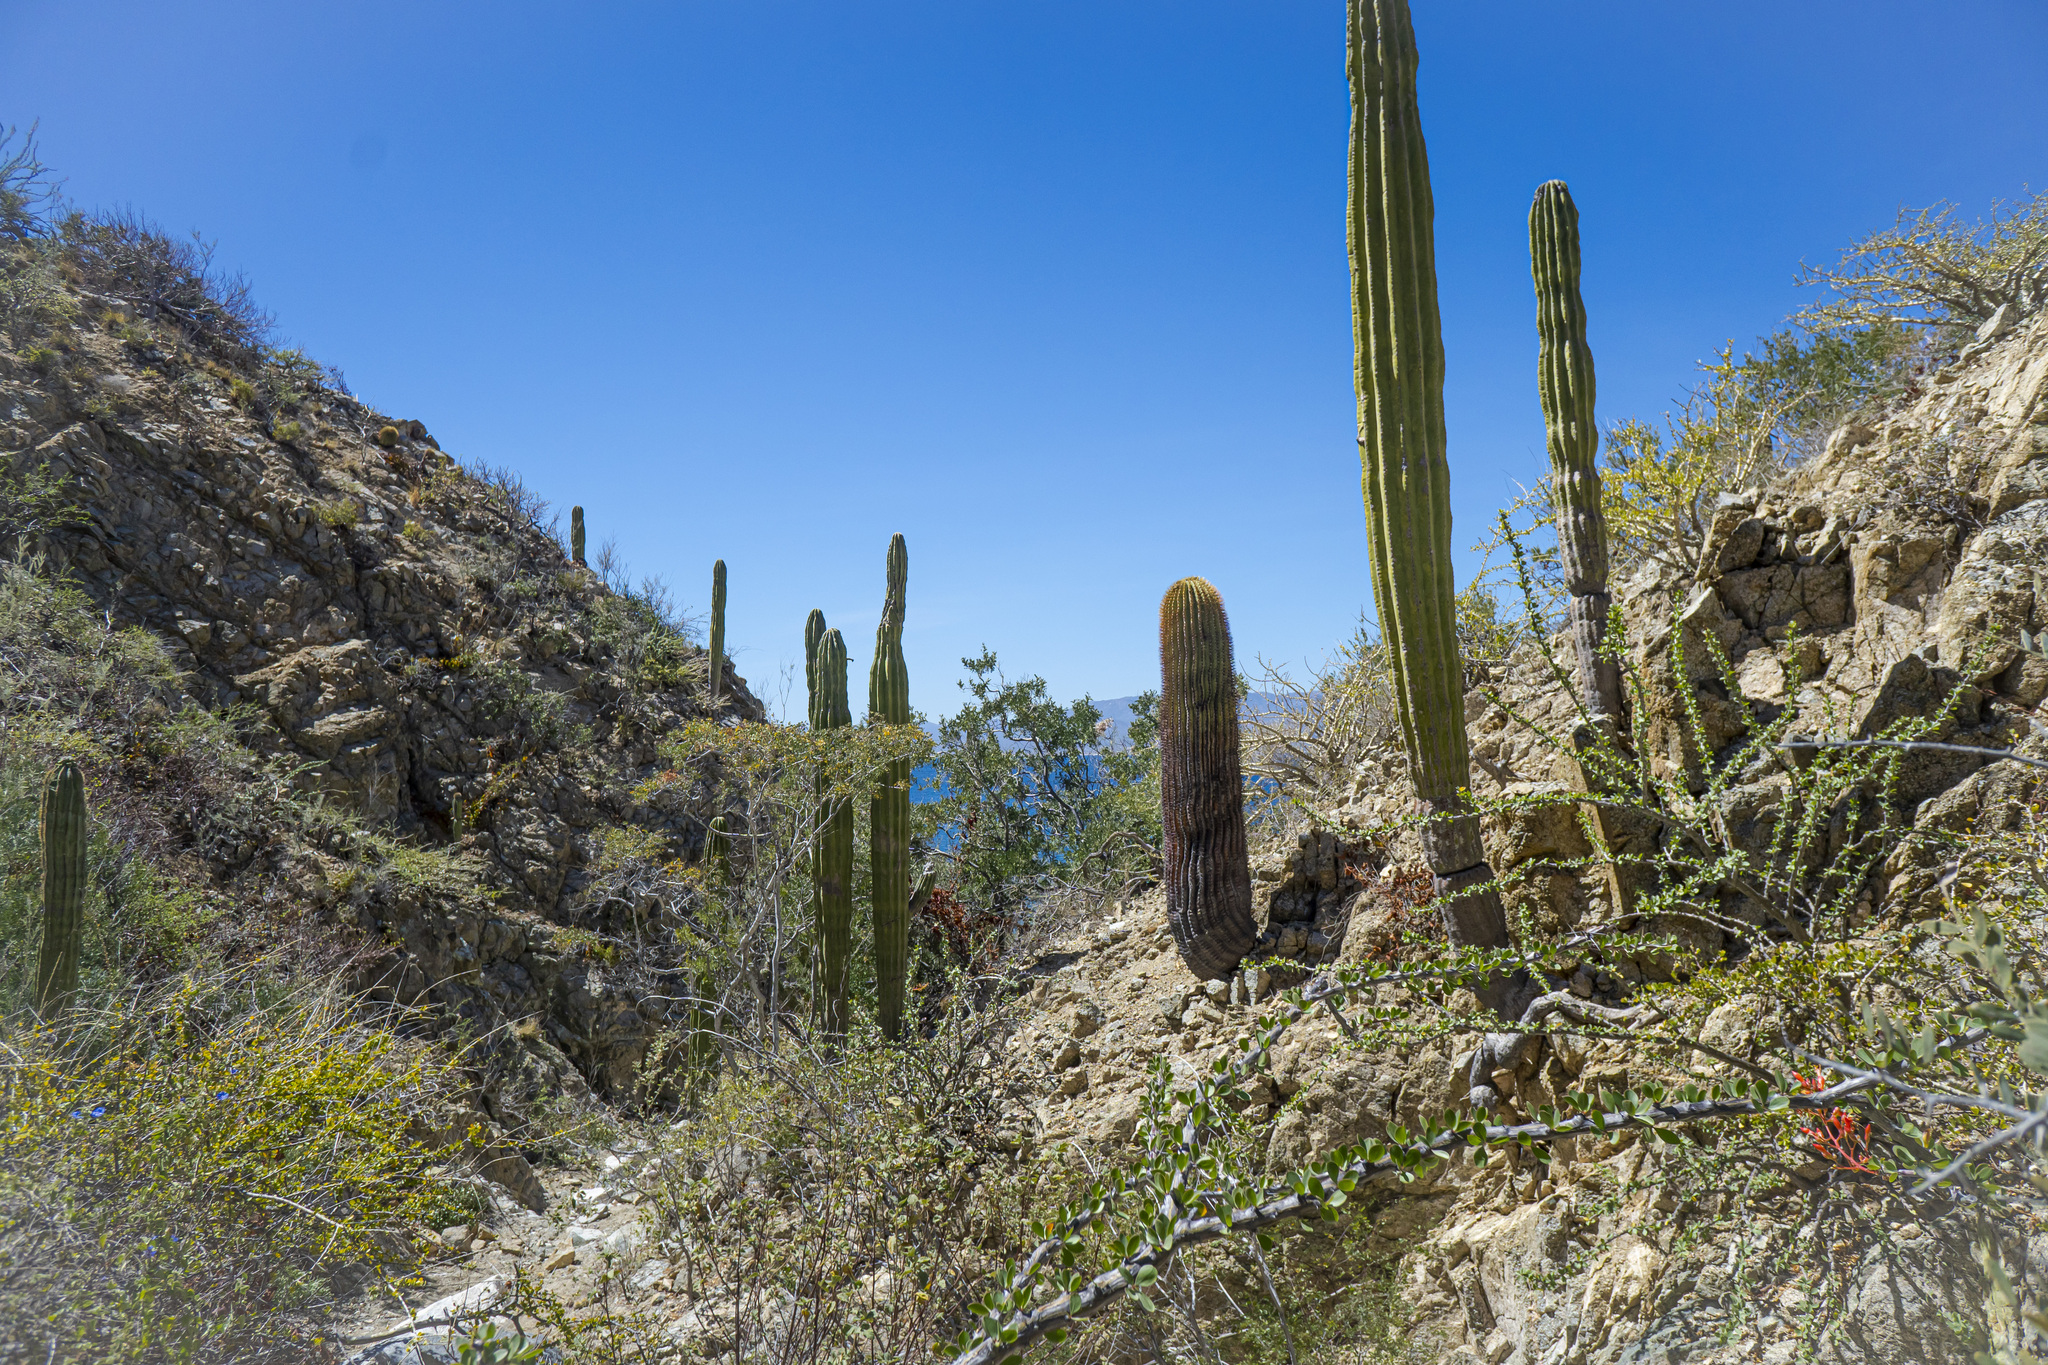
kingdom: Plantae
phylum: Tracheophyta
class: Magnoliopsida
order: Caryophyllales
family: Cactaceae
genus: Ferocactus
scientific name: Ferocactus diguetii
